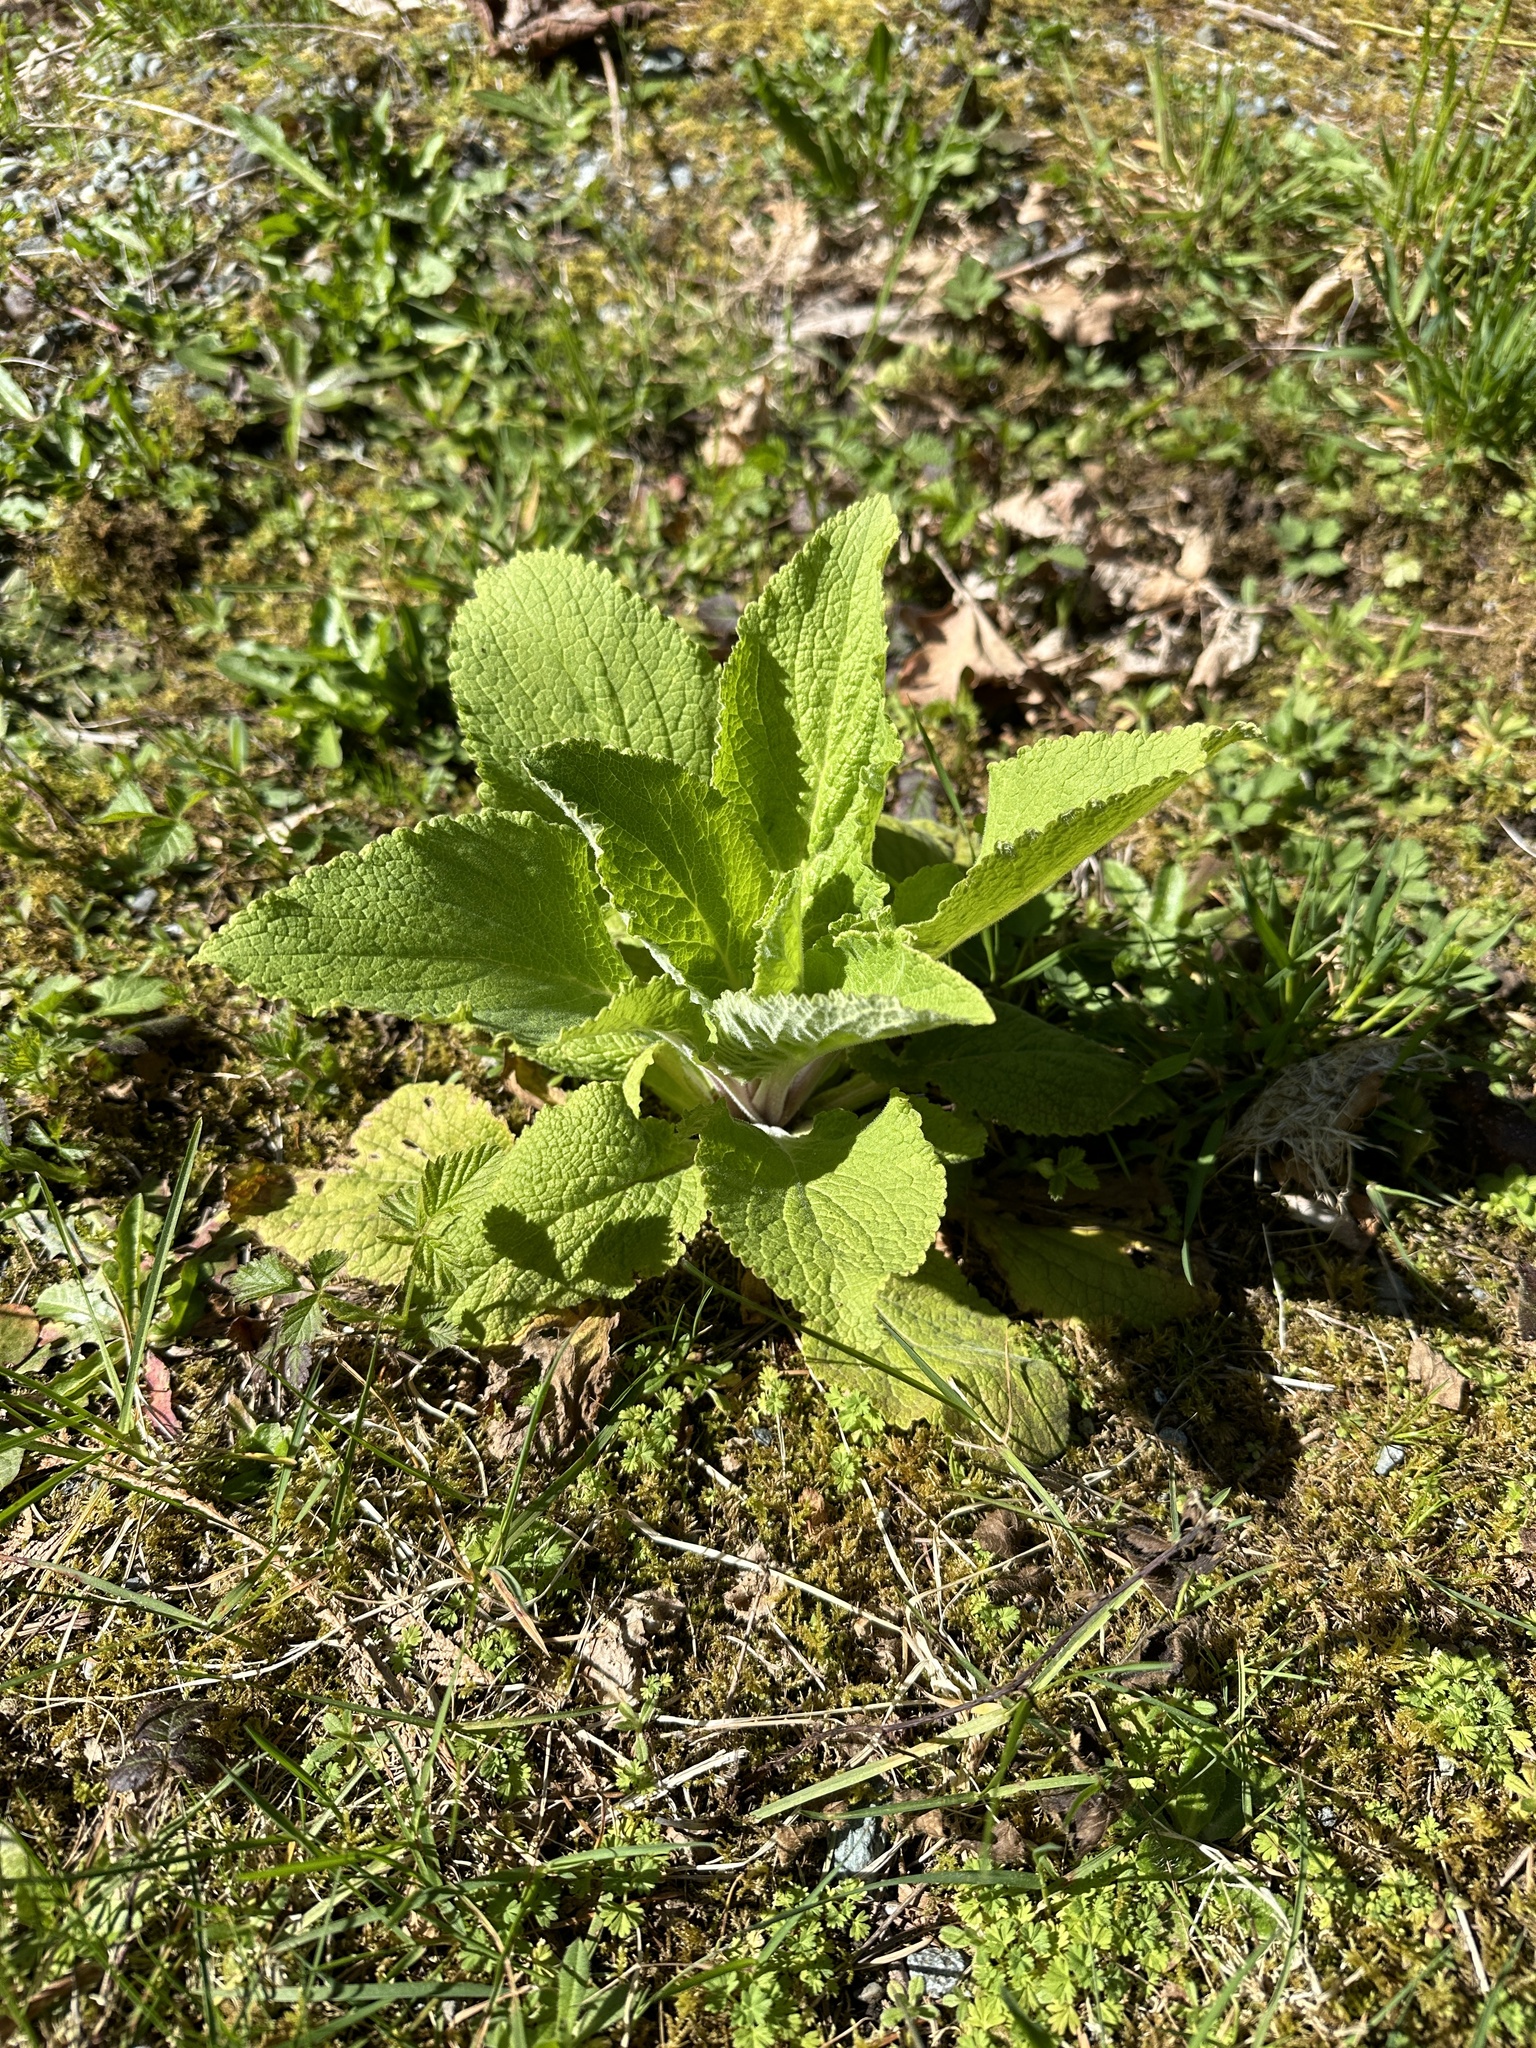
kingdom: Plantae
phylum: Tracheophyta
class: Magnoliopsida
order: Lamiales
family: Plantaginaceae
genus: Digitalis
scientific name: Digitalis purpurea
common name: Foxglove
